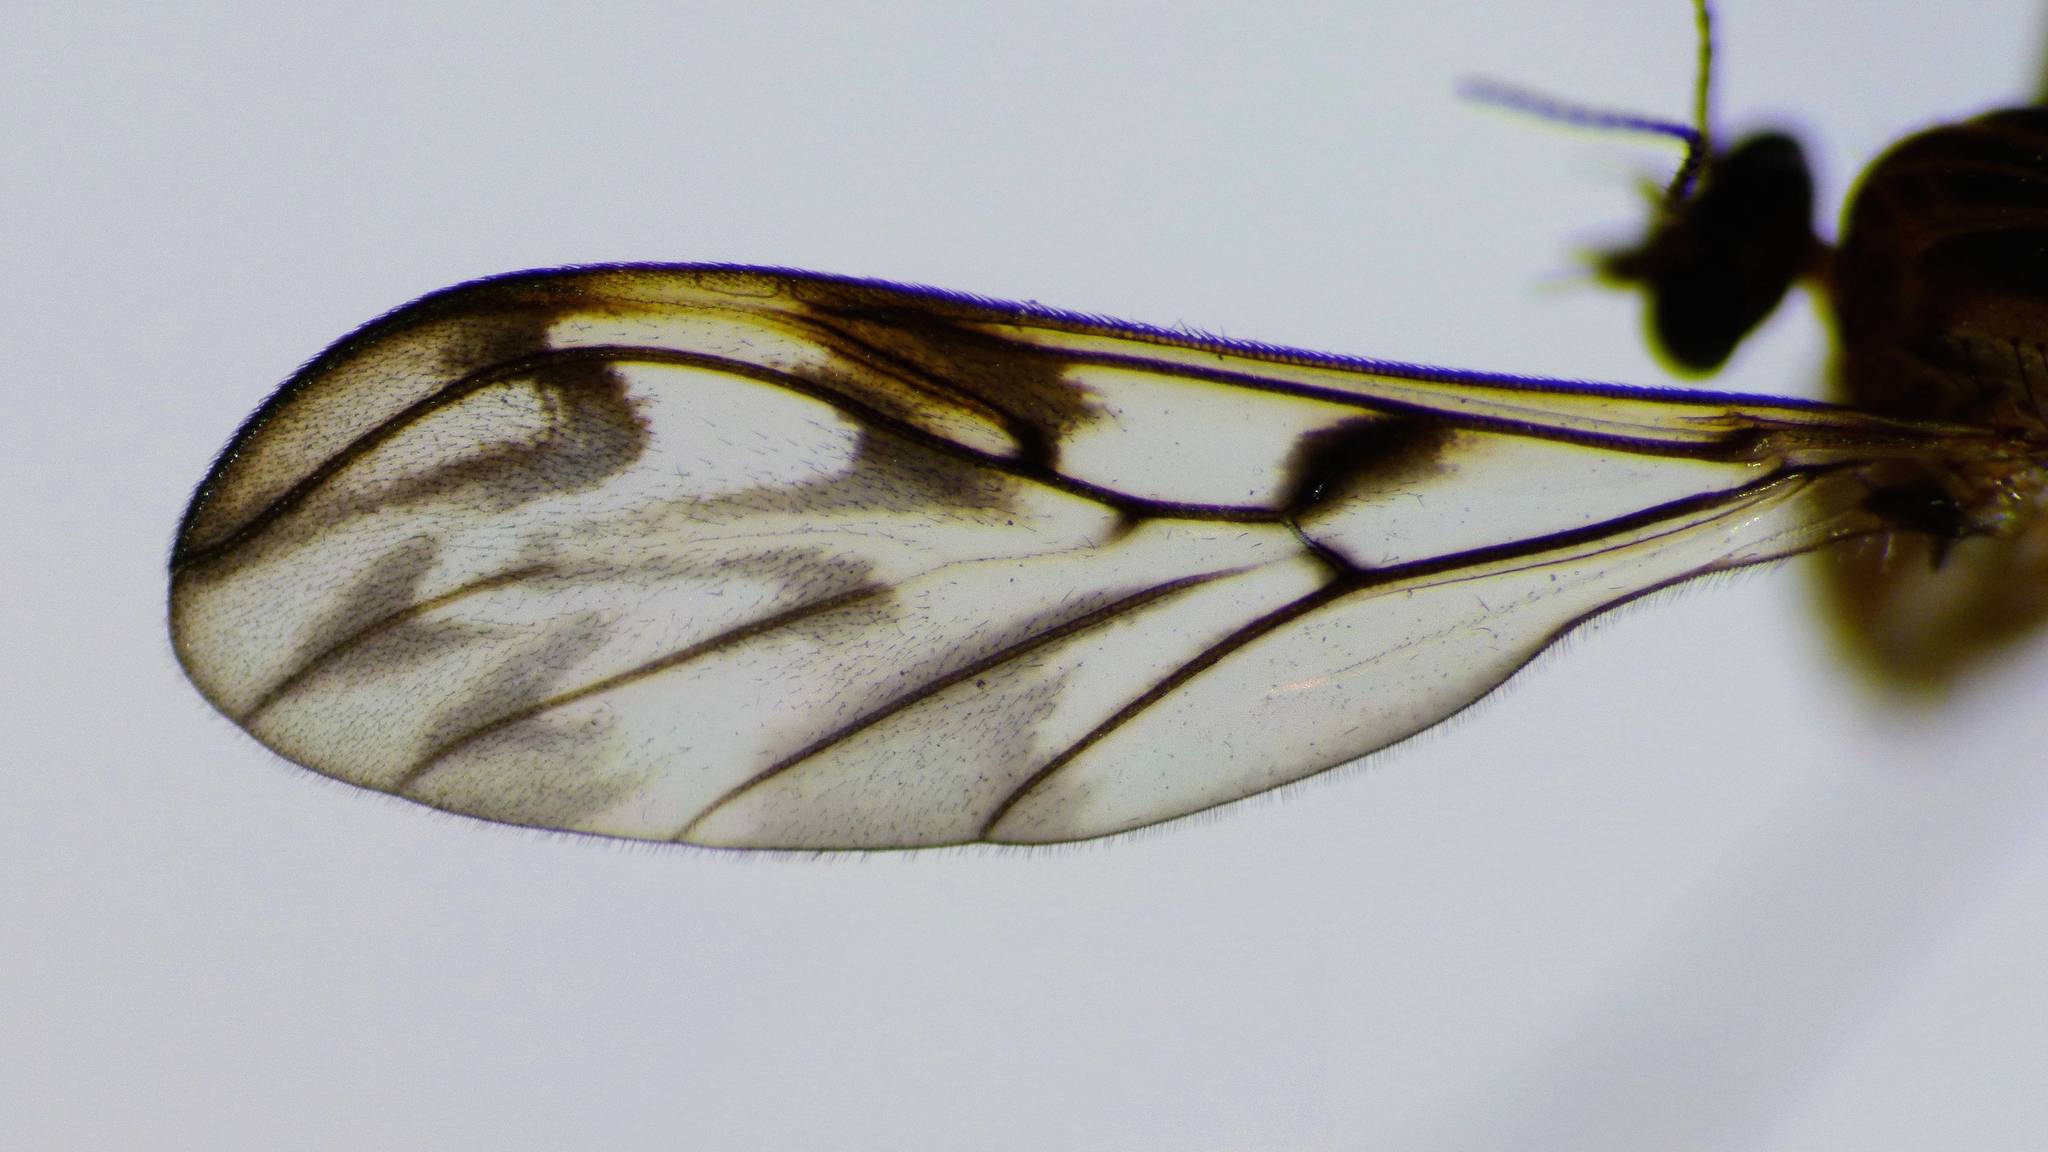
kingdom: Animalia
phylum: Arthropoda
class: Insecta
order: Diptera
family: Ditomyiidae
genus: Nervijuncta
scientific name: Nervijuncta wakefieldi
